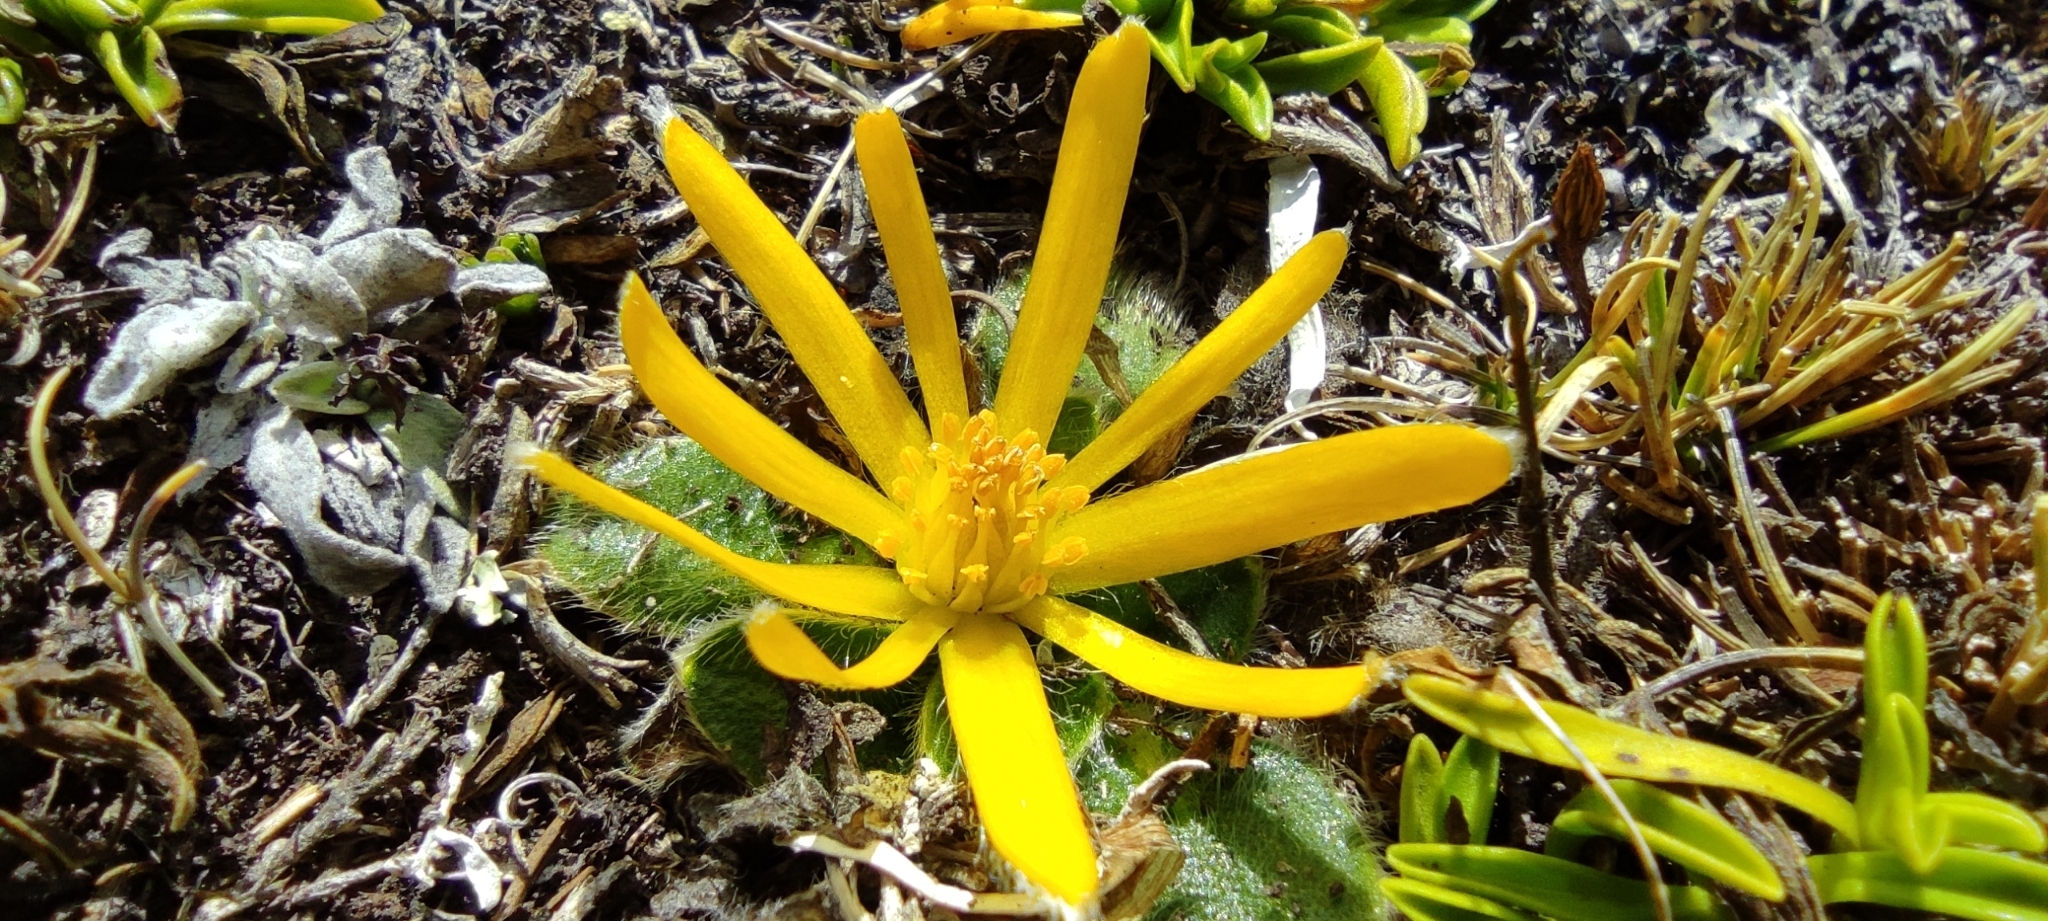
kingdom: Plantae
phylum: Tracheophyta
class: Magnoliopsida
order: Ranunculales
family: Ranunculaceae
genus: Knowltonia
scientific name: Knowltonia integrifolia
